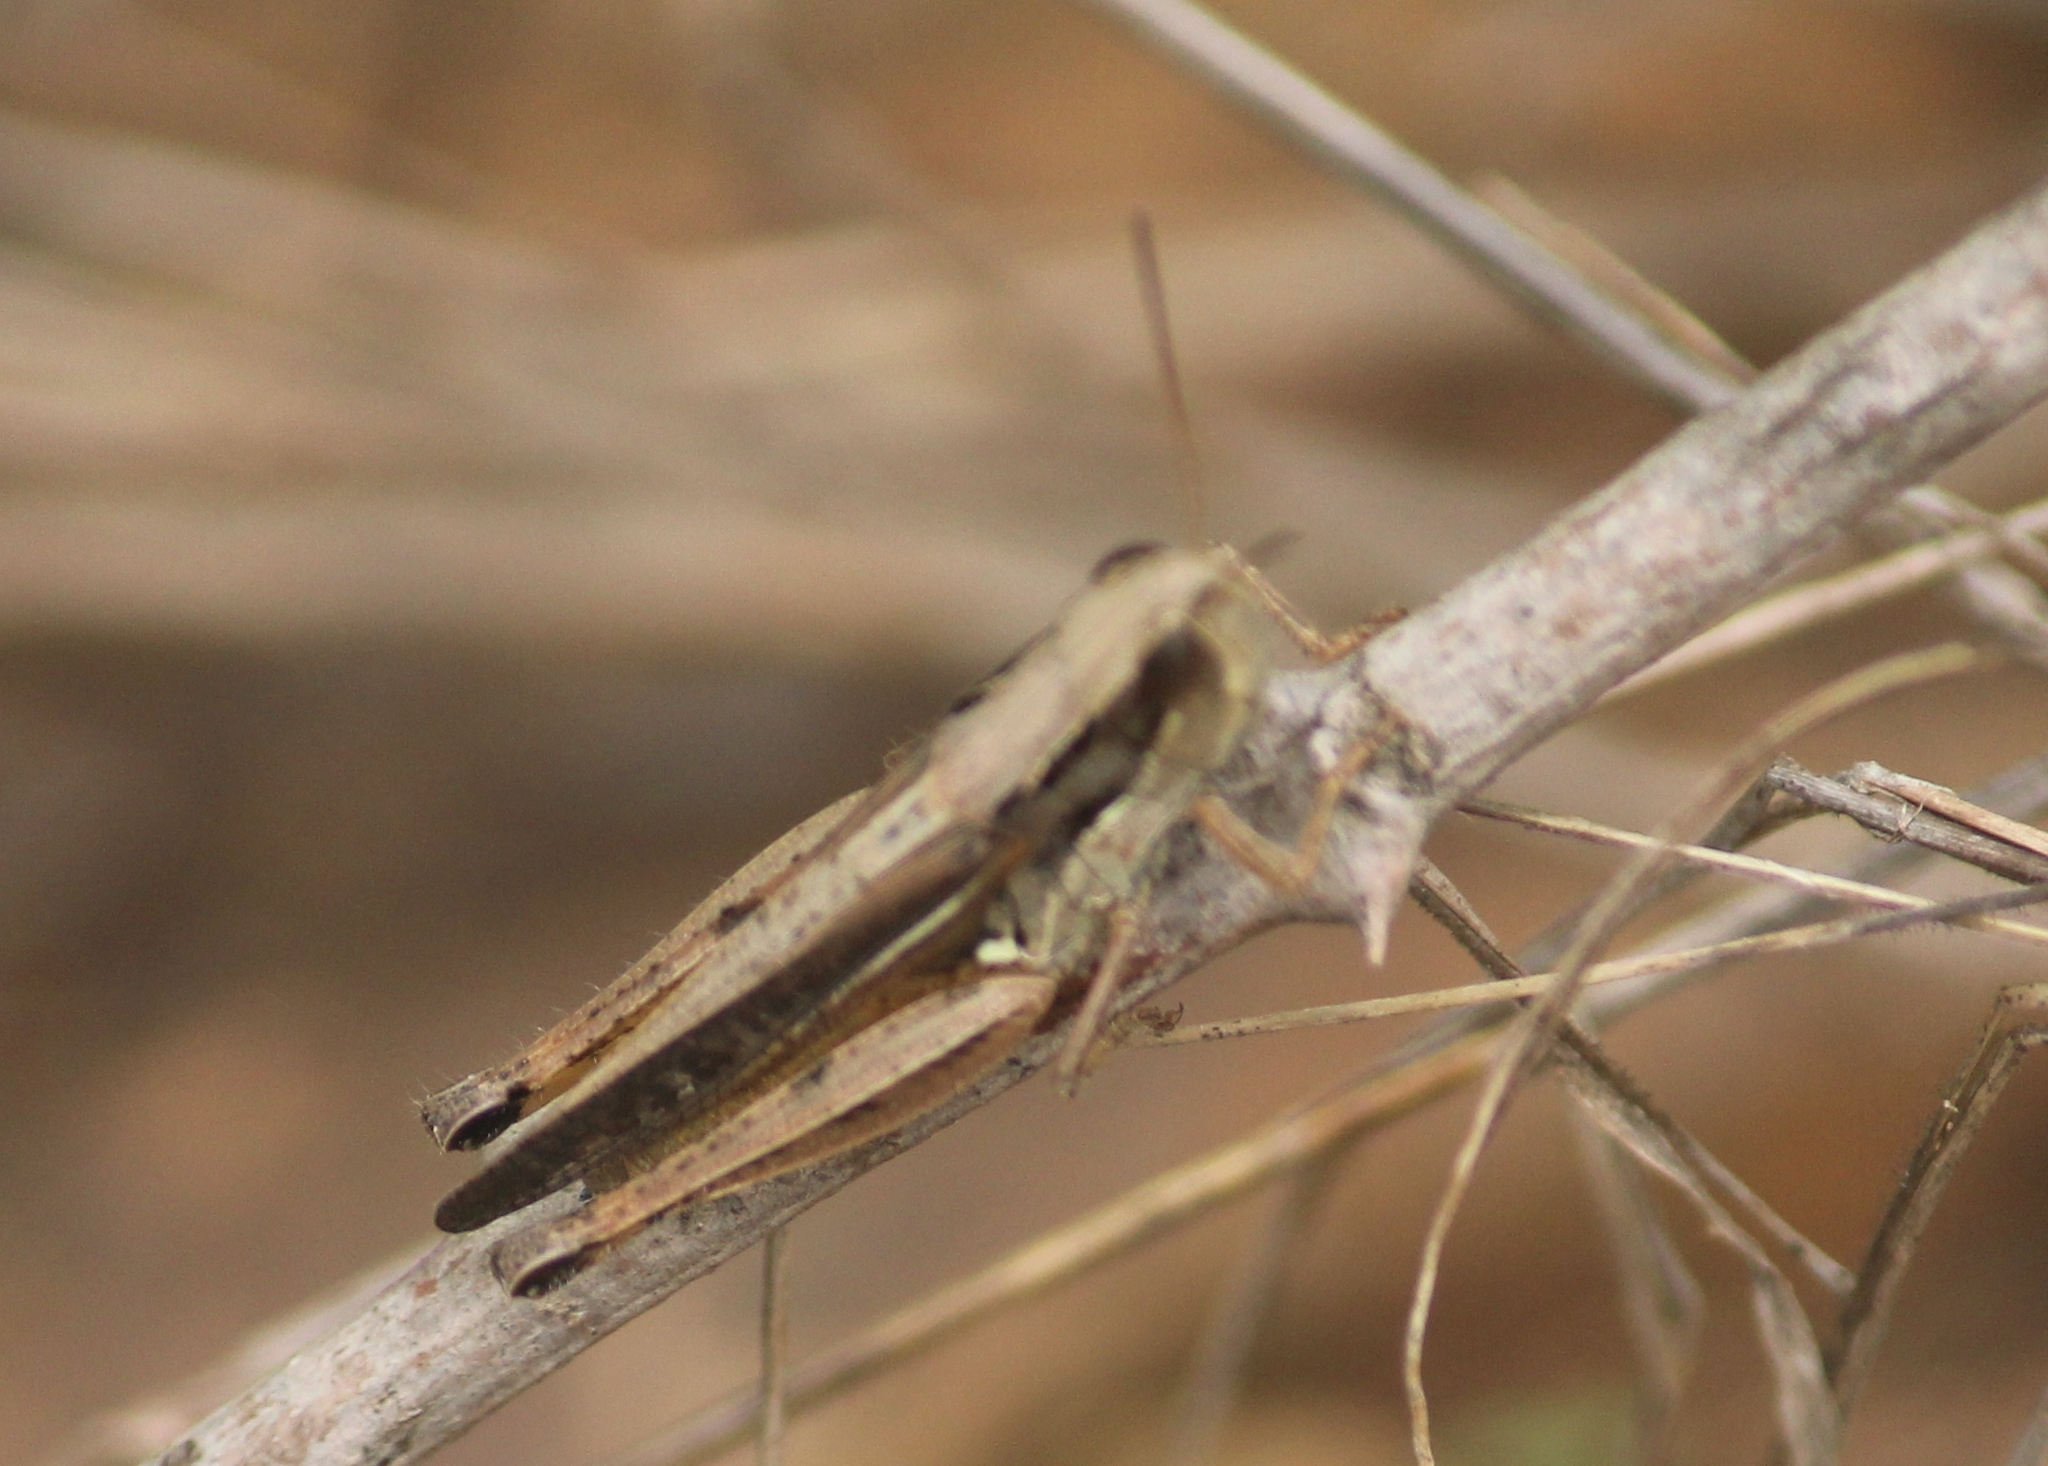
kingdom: Animalia
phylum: Arthropoda
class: Insecta
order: Orthoptera
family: Acrididae
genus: Stenohippus
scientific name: Stenohippus mundus
